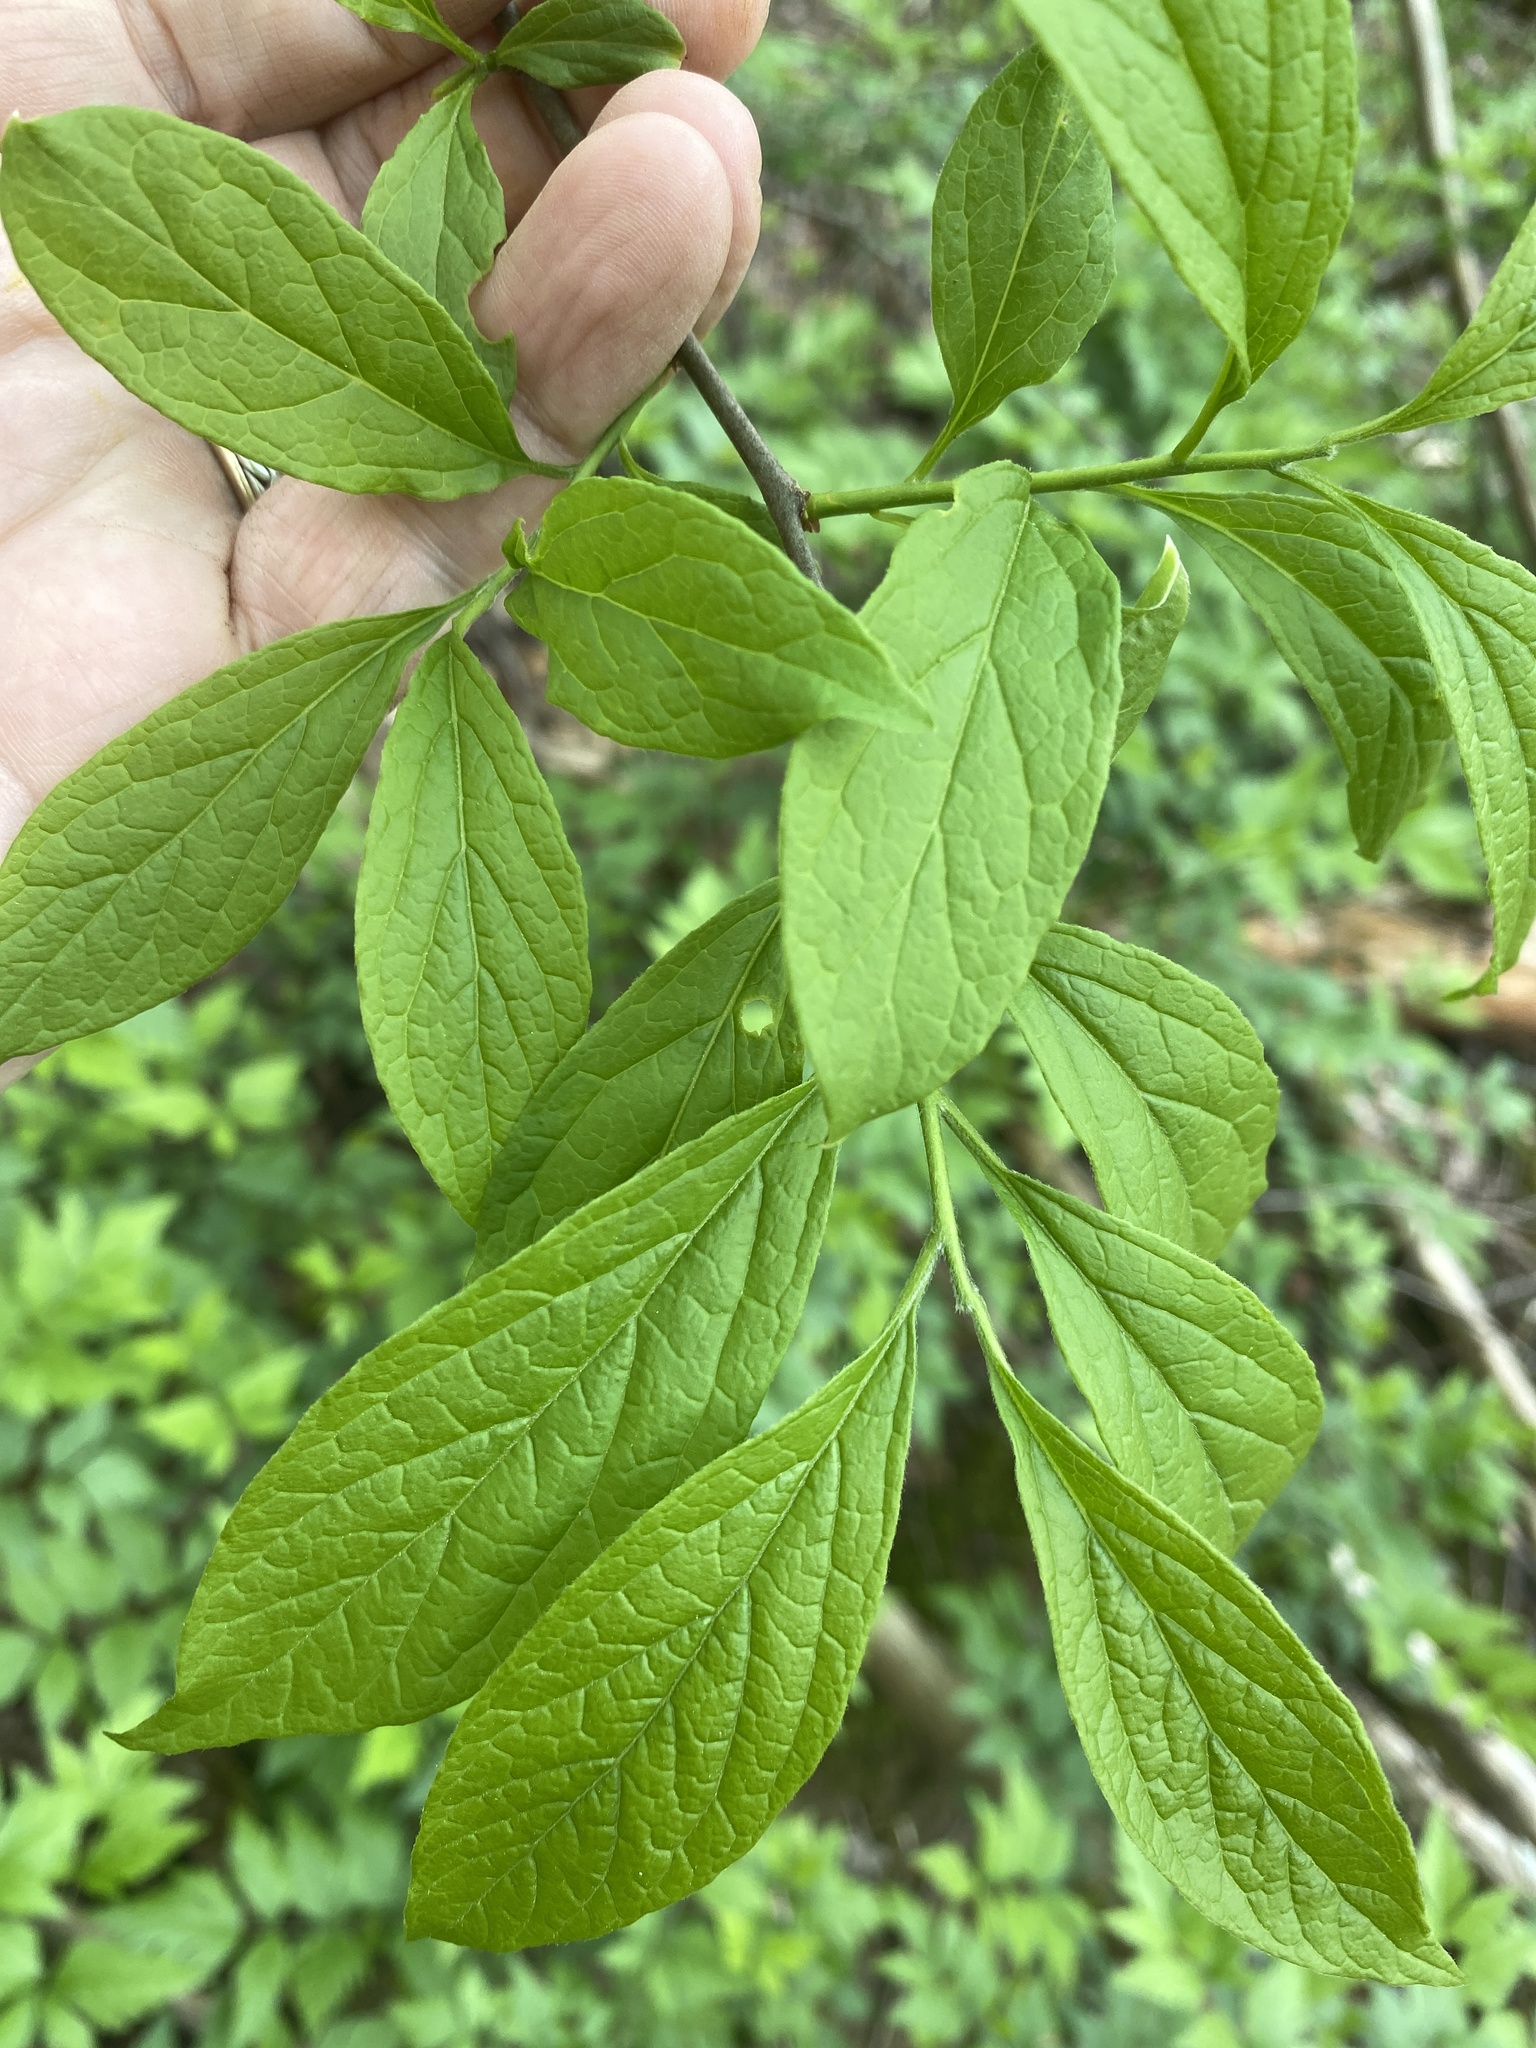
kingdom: Plantae
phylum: Tracheophyta
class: Magnoliopsida
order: Santalales
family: Cervantesiaceae
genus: Pyrularia
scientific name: Pyrularia pubera
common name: Oilnut
